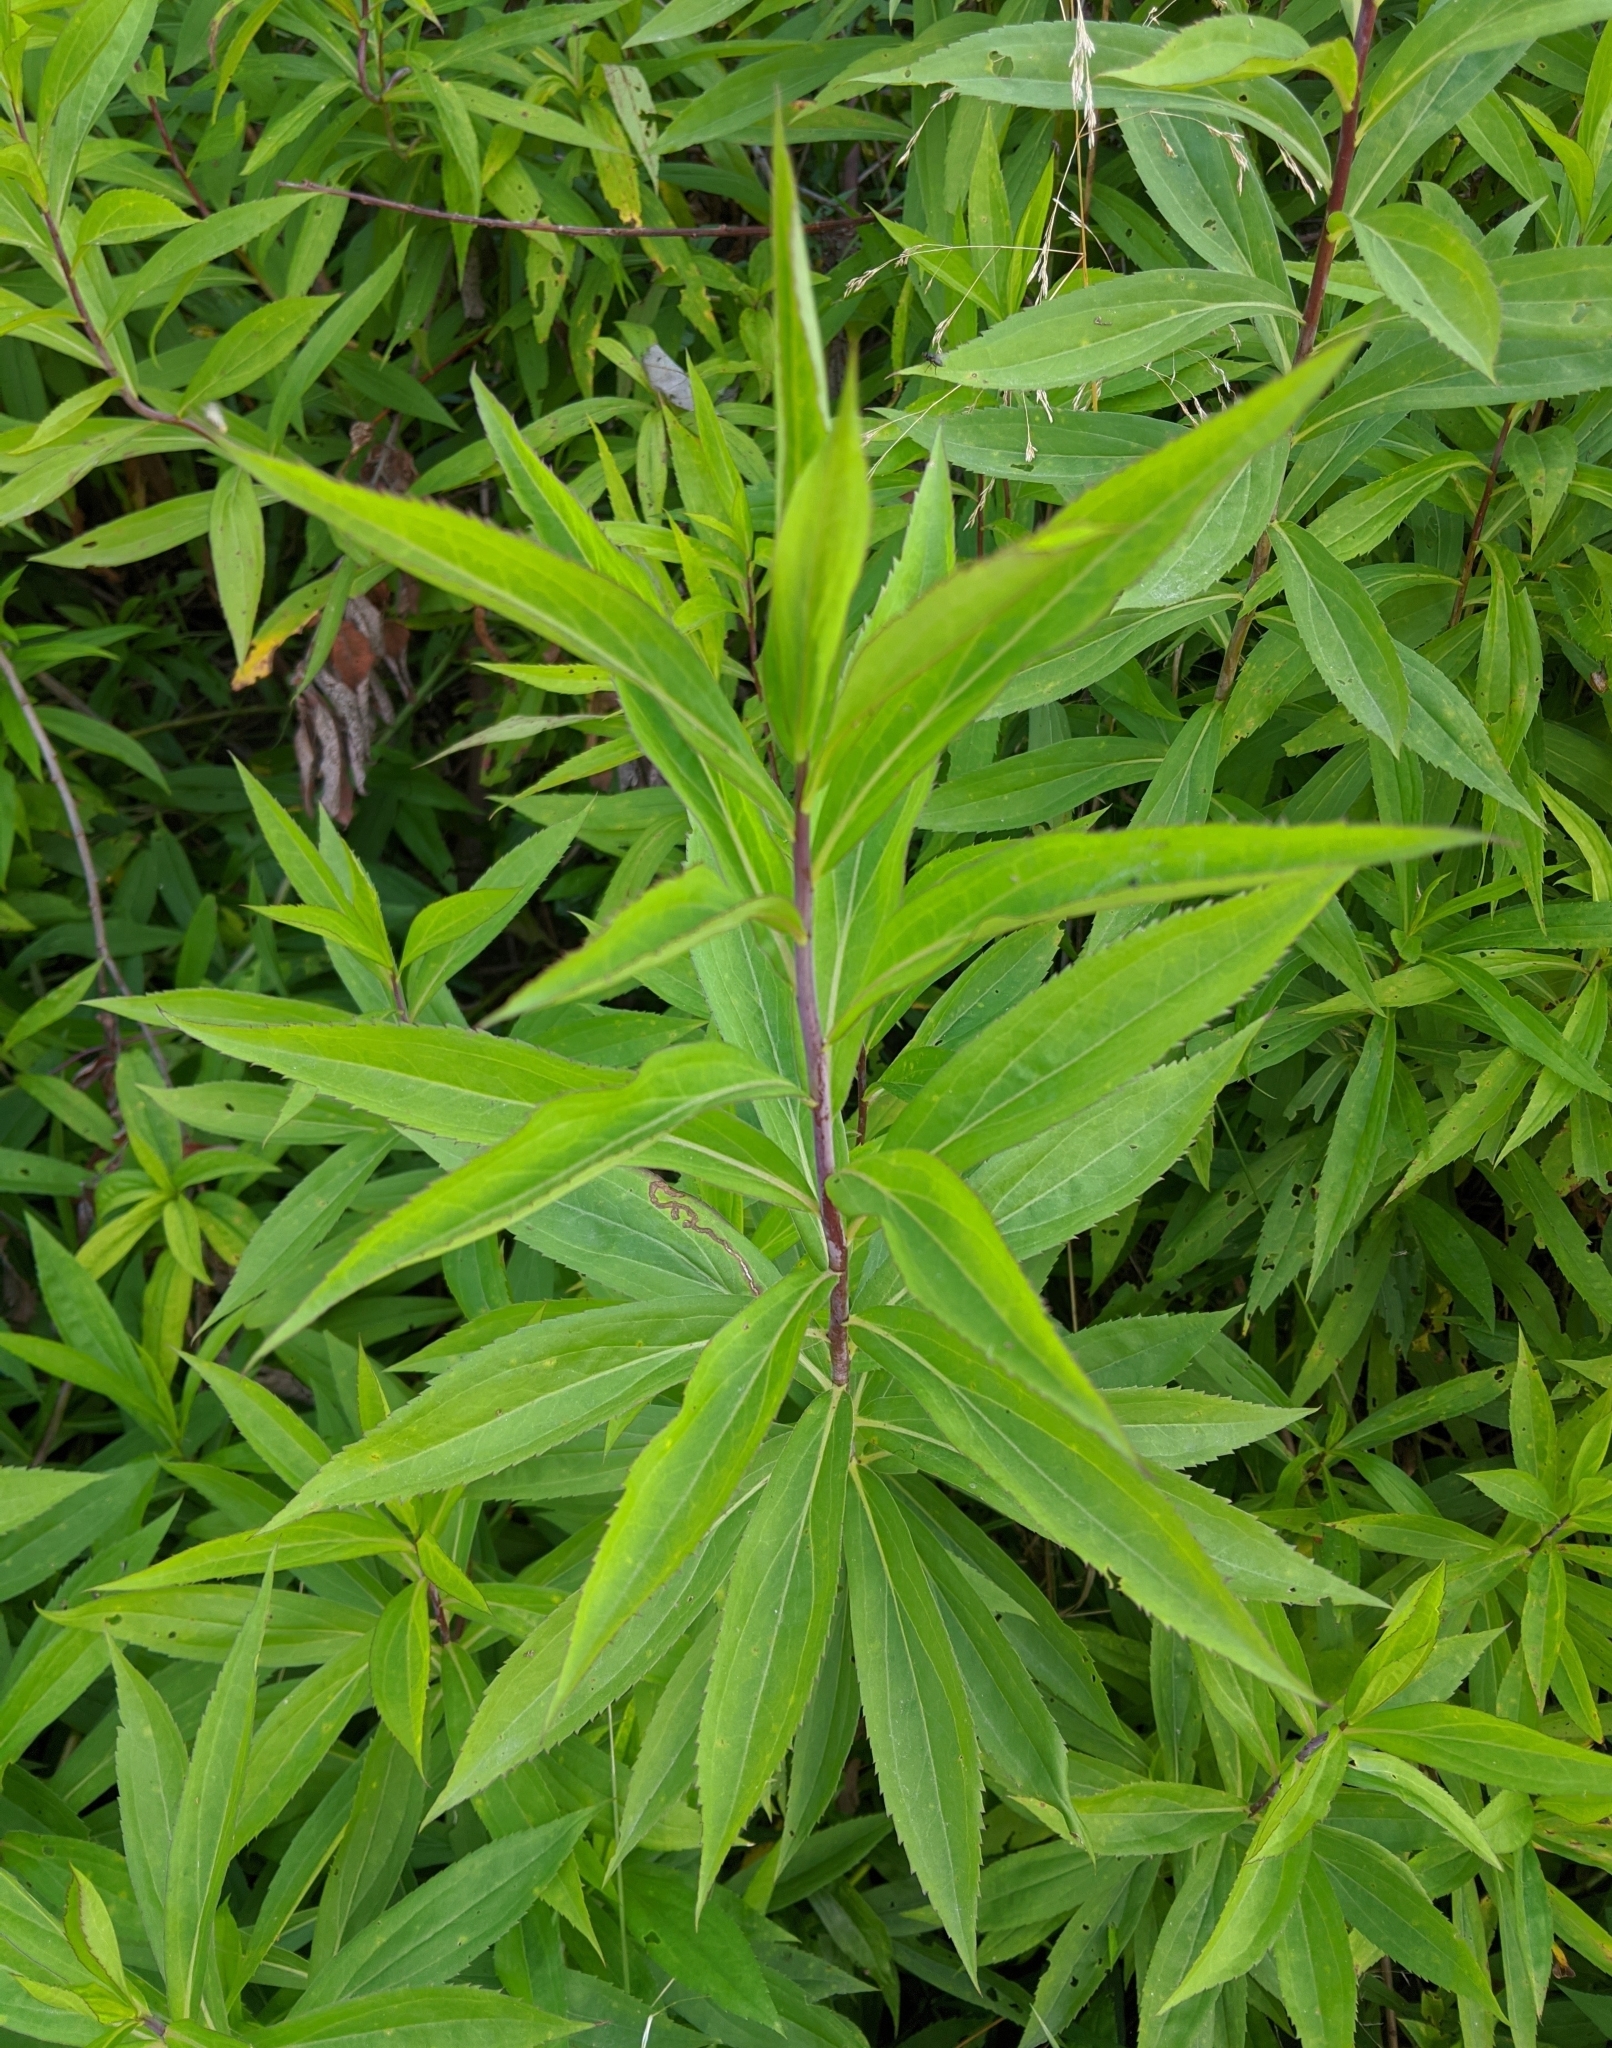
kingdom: Plantae
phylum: Tracheophyta
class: Magnoliopsida
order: Asterales
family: Asteraceae
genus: Solidago
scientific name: Solidago gigantea
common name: Giant goldenrod
